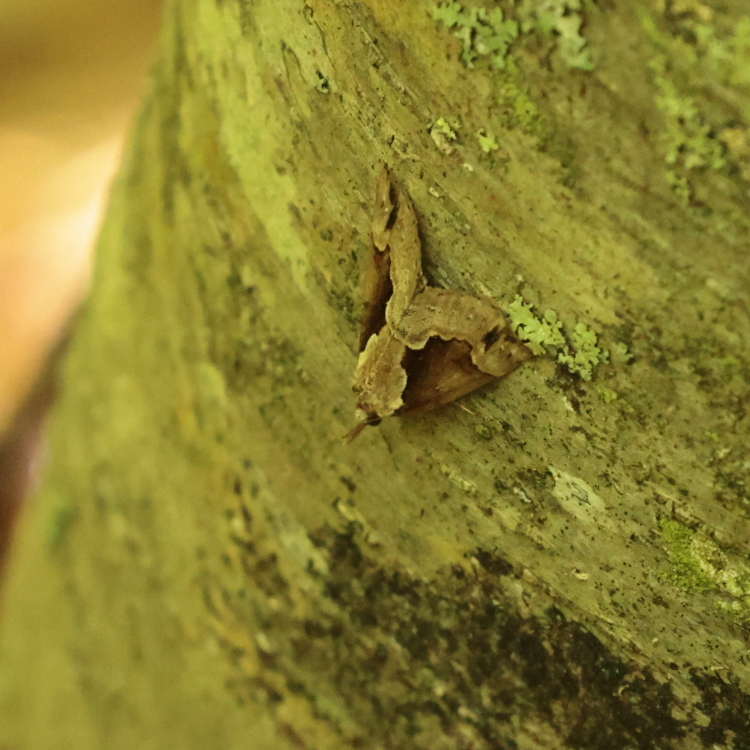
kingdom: Animalia
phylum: Arthropoda
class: Insecta
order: Lepidoptera
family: Erebidae
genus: Hypena
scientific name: Hypena baltimoralis
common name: Baltimore snout
